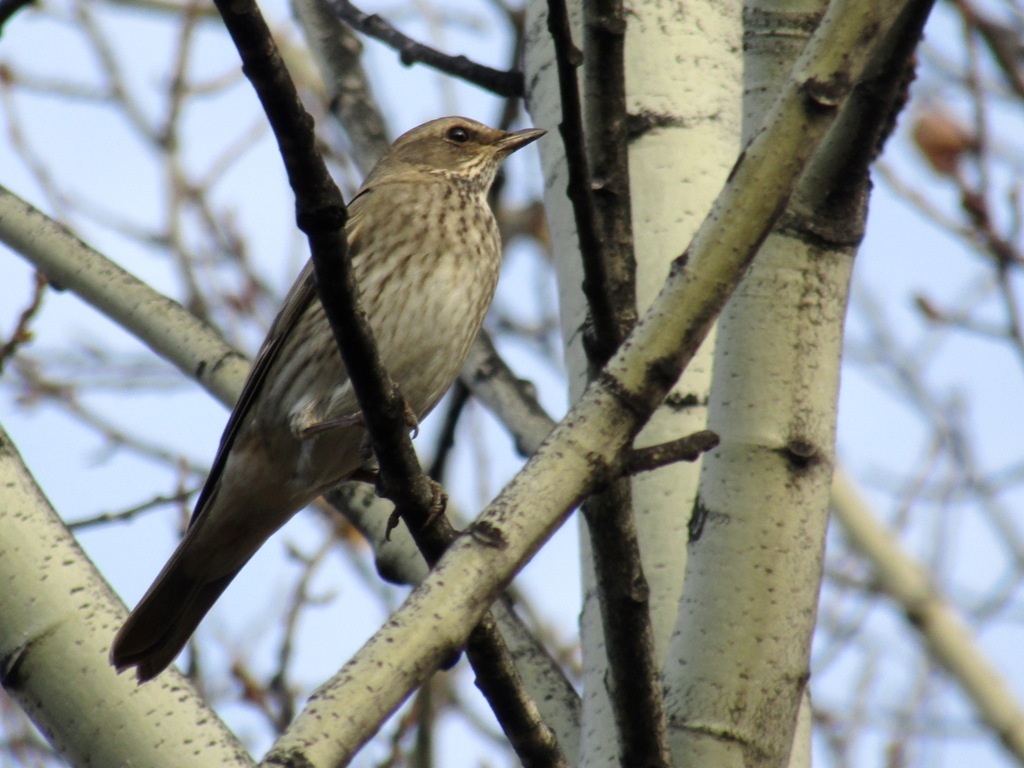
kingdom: Animalia
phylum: Chordata
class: Aves
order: Passeriformes
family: Turdidae
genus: Turdus
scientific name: Turdus atrogularis
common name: Black-throated thrush
